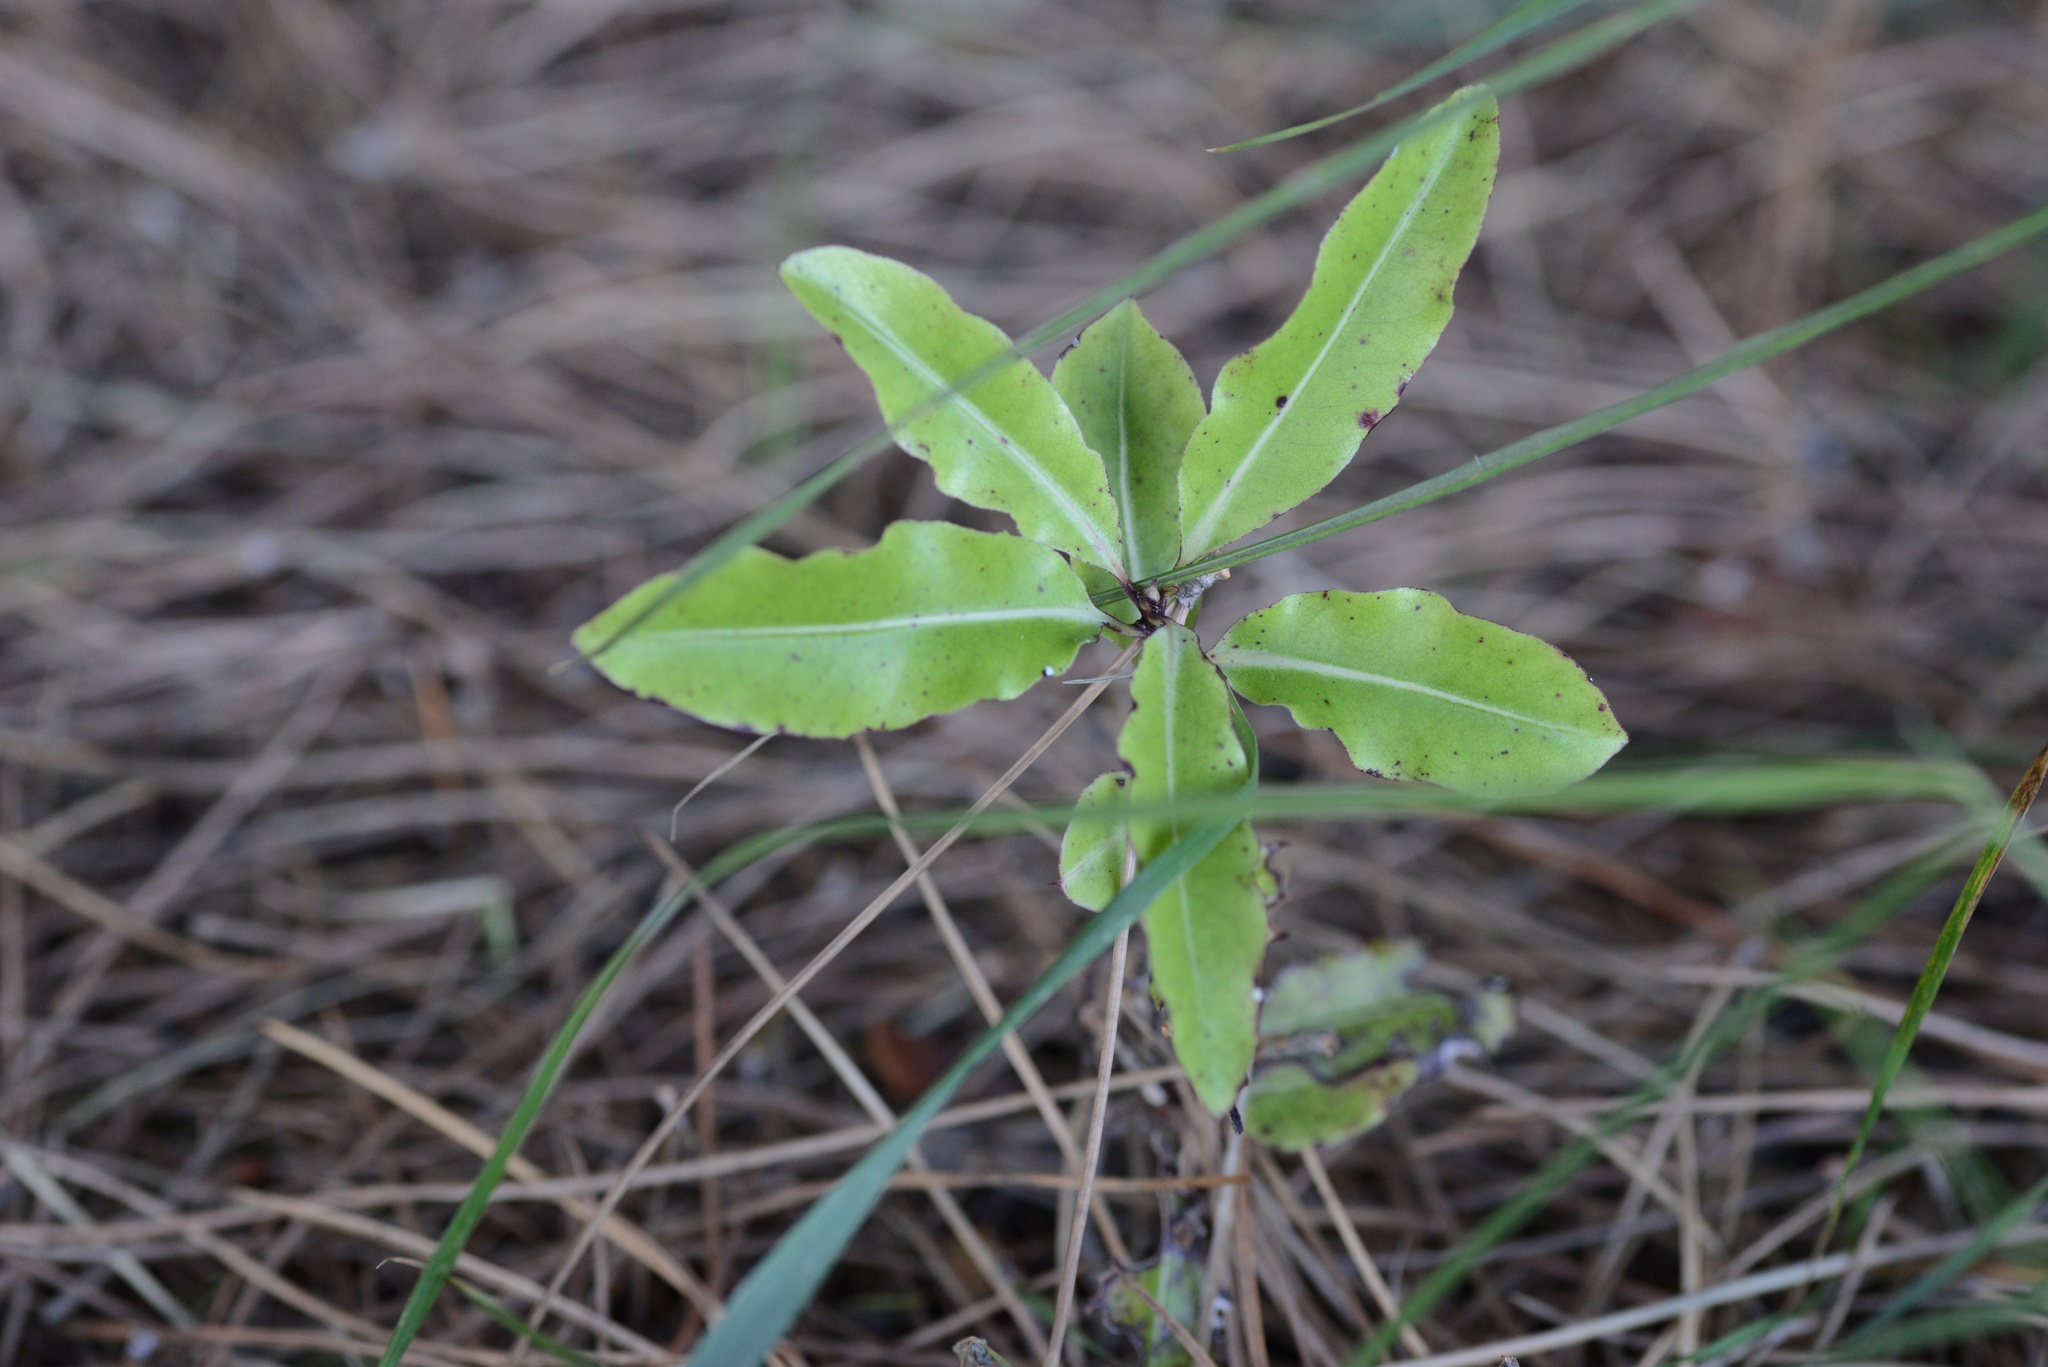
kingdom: Plantae
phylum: Tracheophyta
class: Magnoliopsida
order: Apiales
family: Pittosporaceae
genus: Pittosporum
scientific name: Pittosporum eugenioides
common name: Lemonwood
